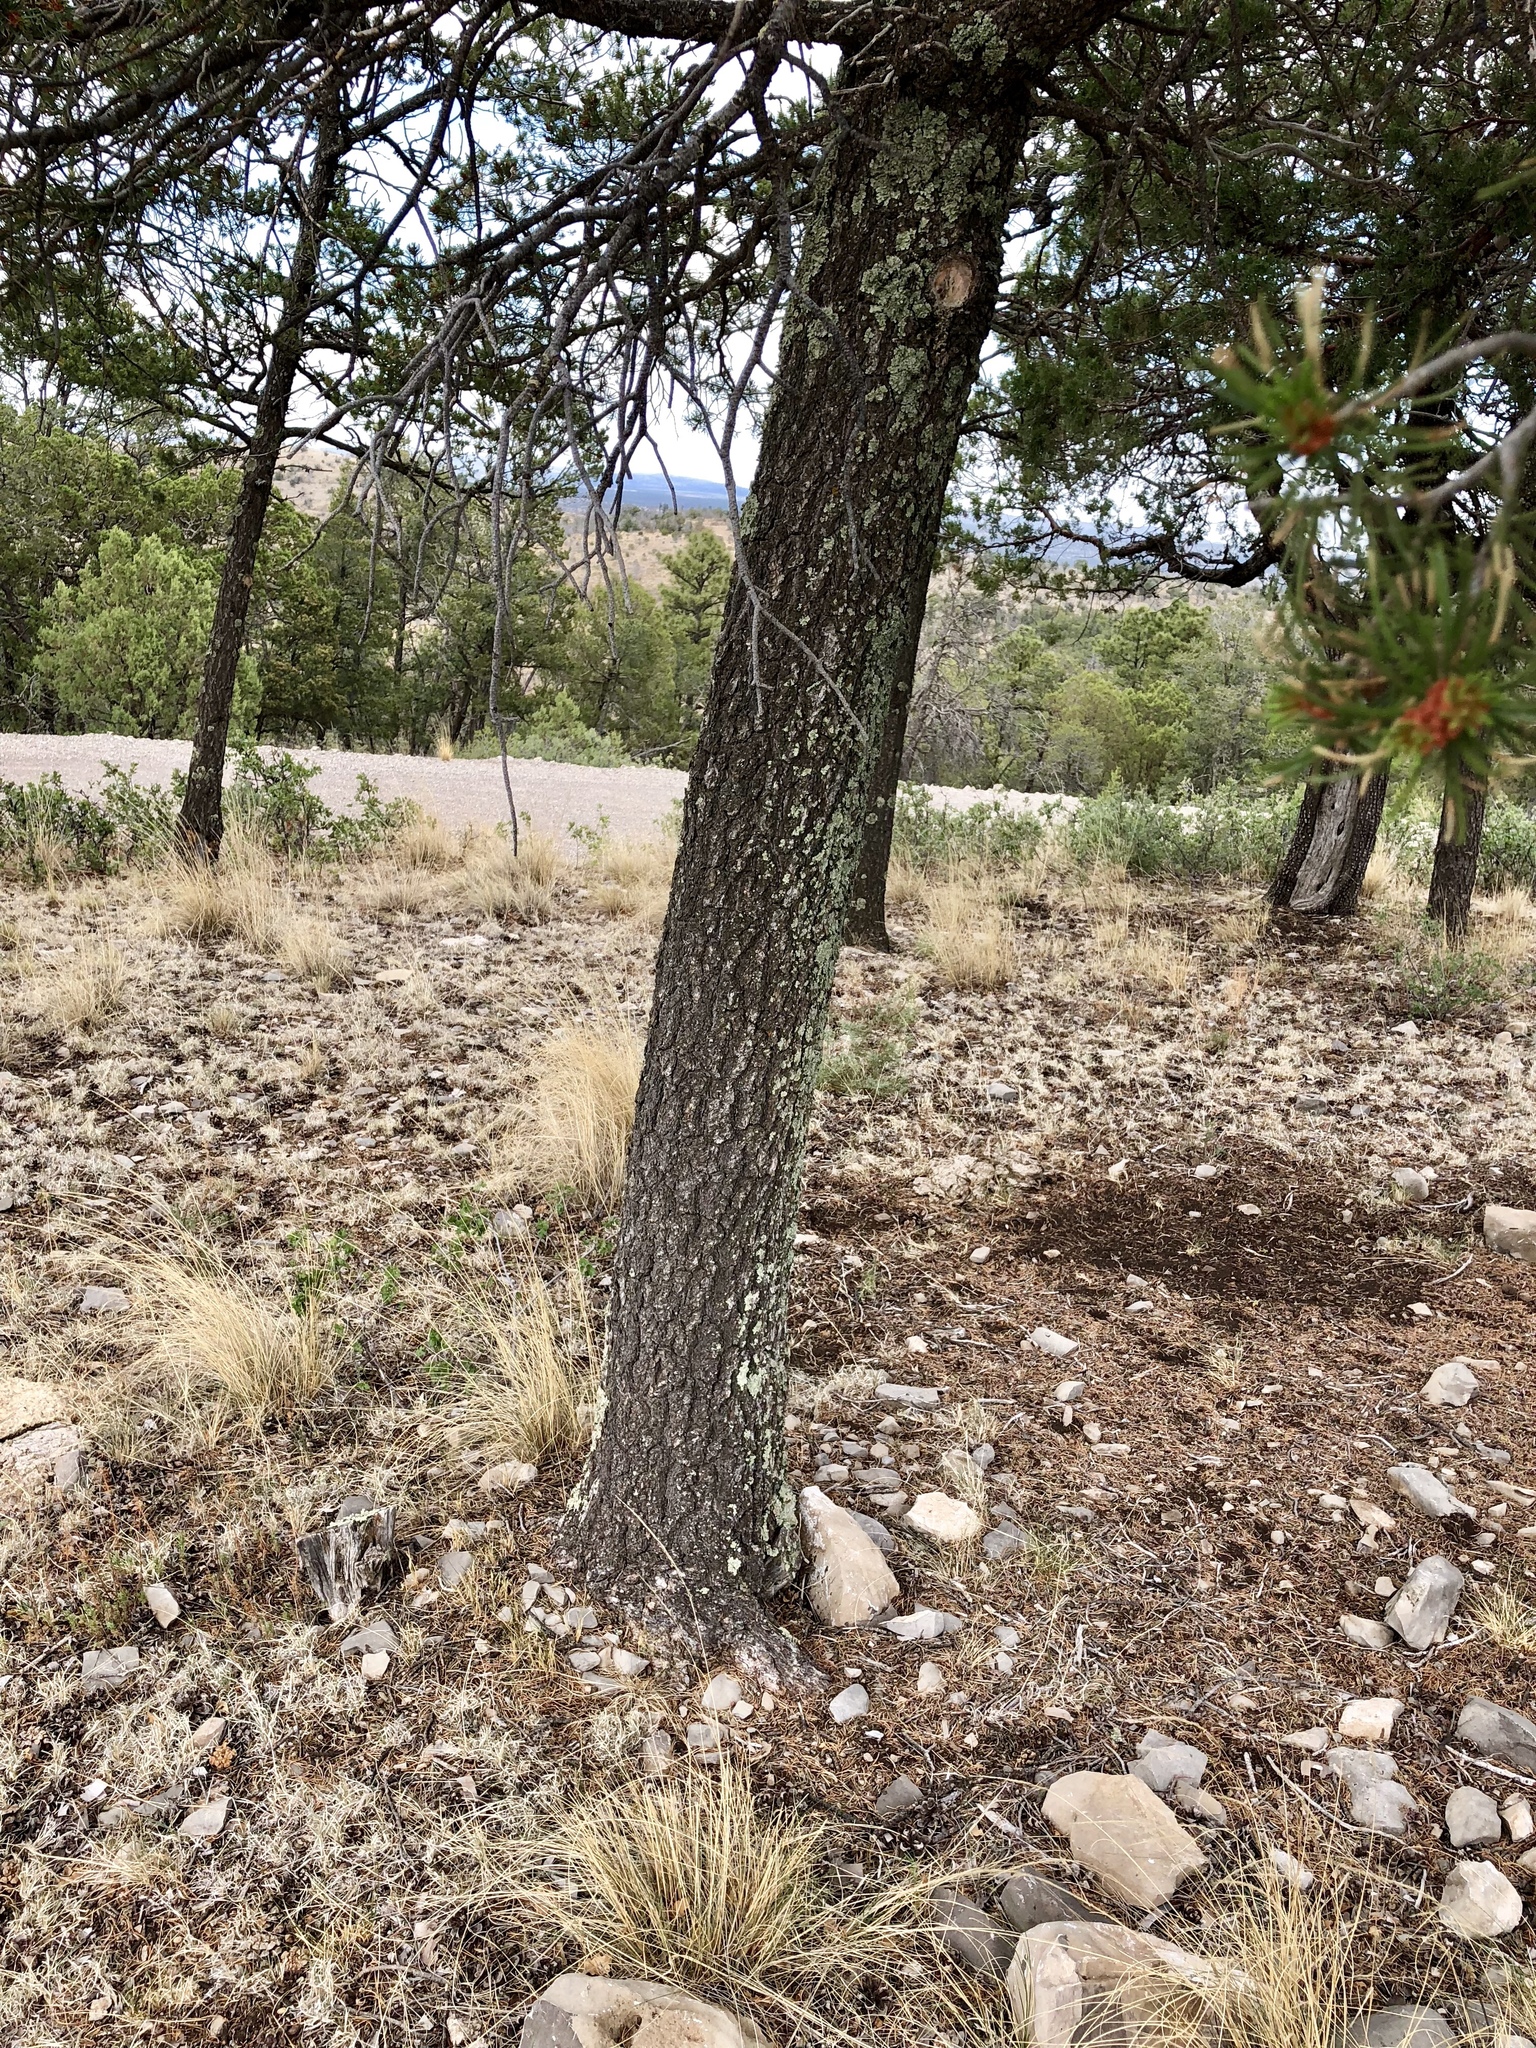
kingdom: Plantae
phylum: Tracheophyta
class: Pinopsida
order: Pinales
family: Pinaceae
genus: Pinus
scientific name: Pinus edulis
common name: Colorado pinyon
